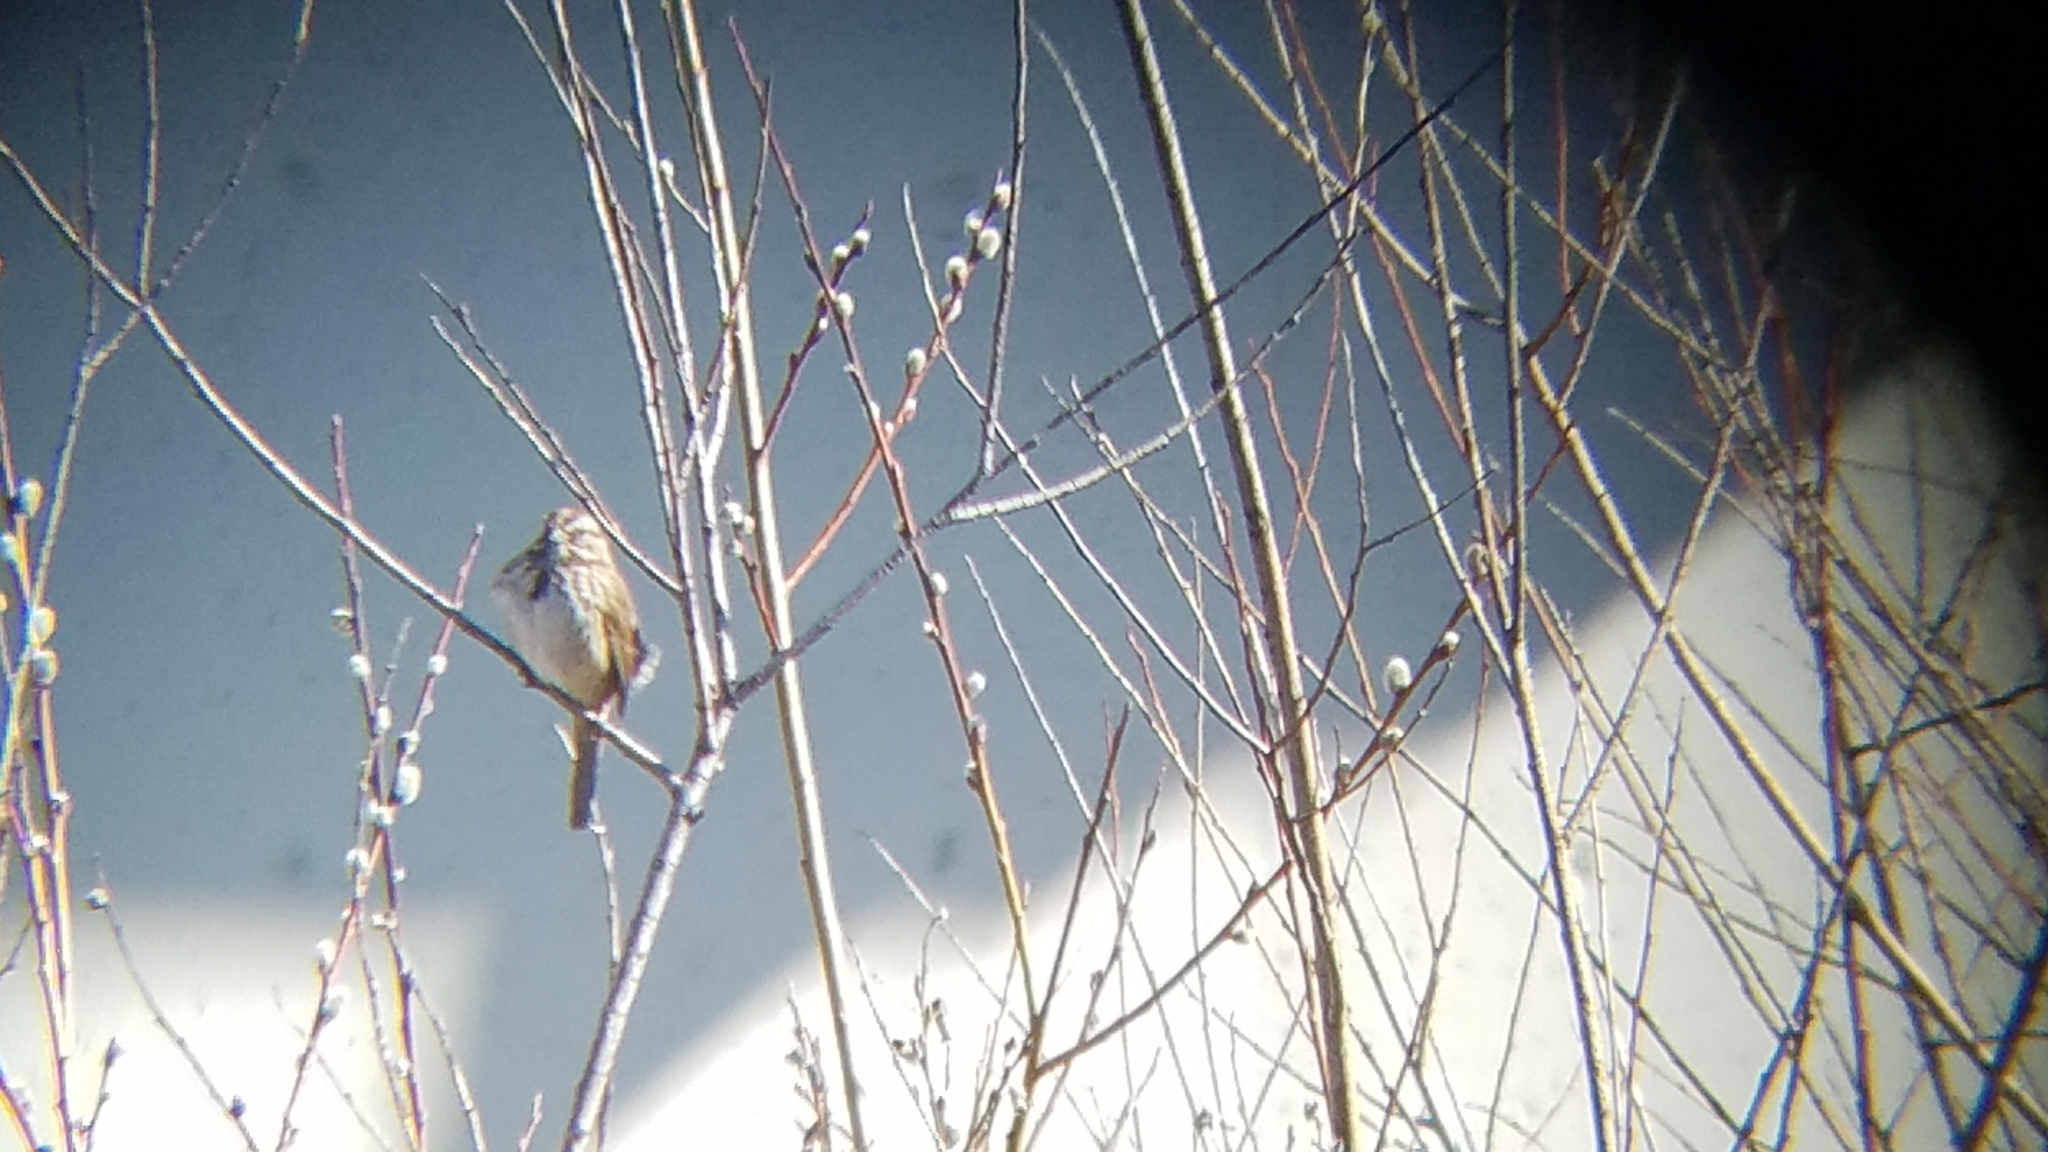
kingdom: Animalia
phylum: Chordata
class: Aves
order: Passeriformes
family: Passerellidae
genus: Melospiza
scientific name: Melospiza melodia
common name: Song sparrow
